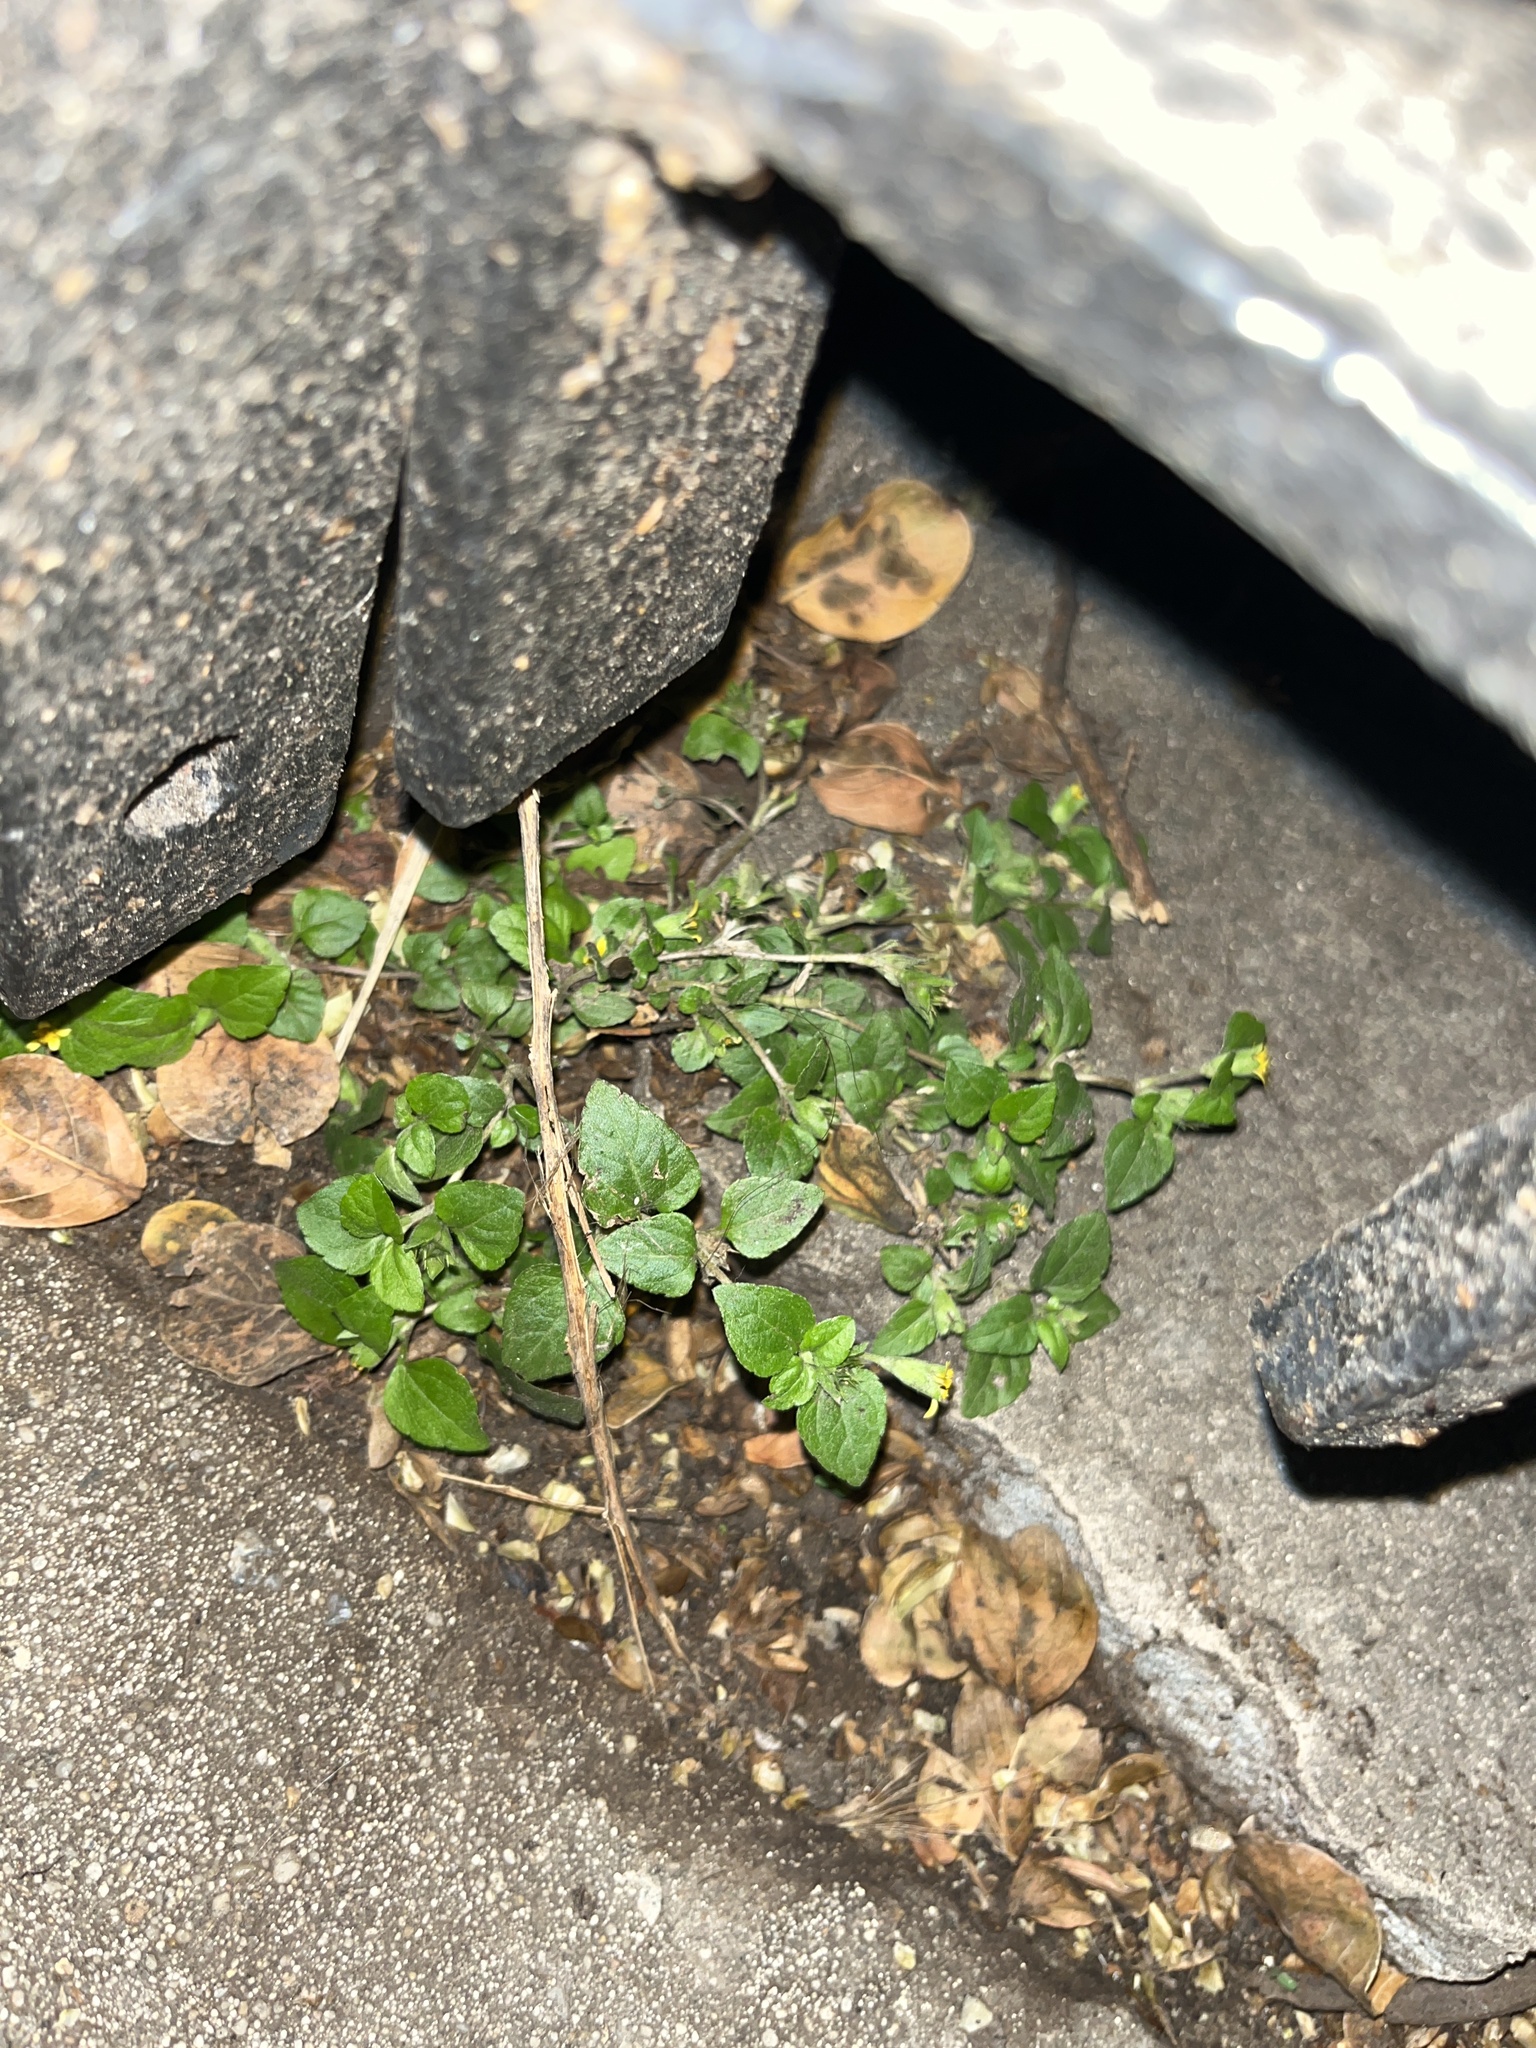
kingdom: Plantae
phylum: Tracheophyta
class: Magnoliopsida
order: Asterales
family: Asteraceae
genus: Calyptocarpus
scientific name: Calyptocarpus vialis
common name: Straggler daisy
